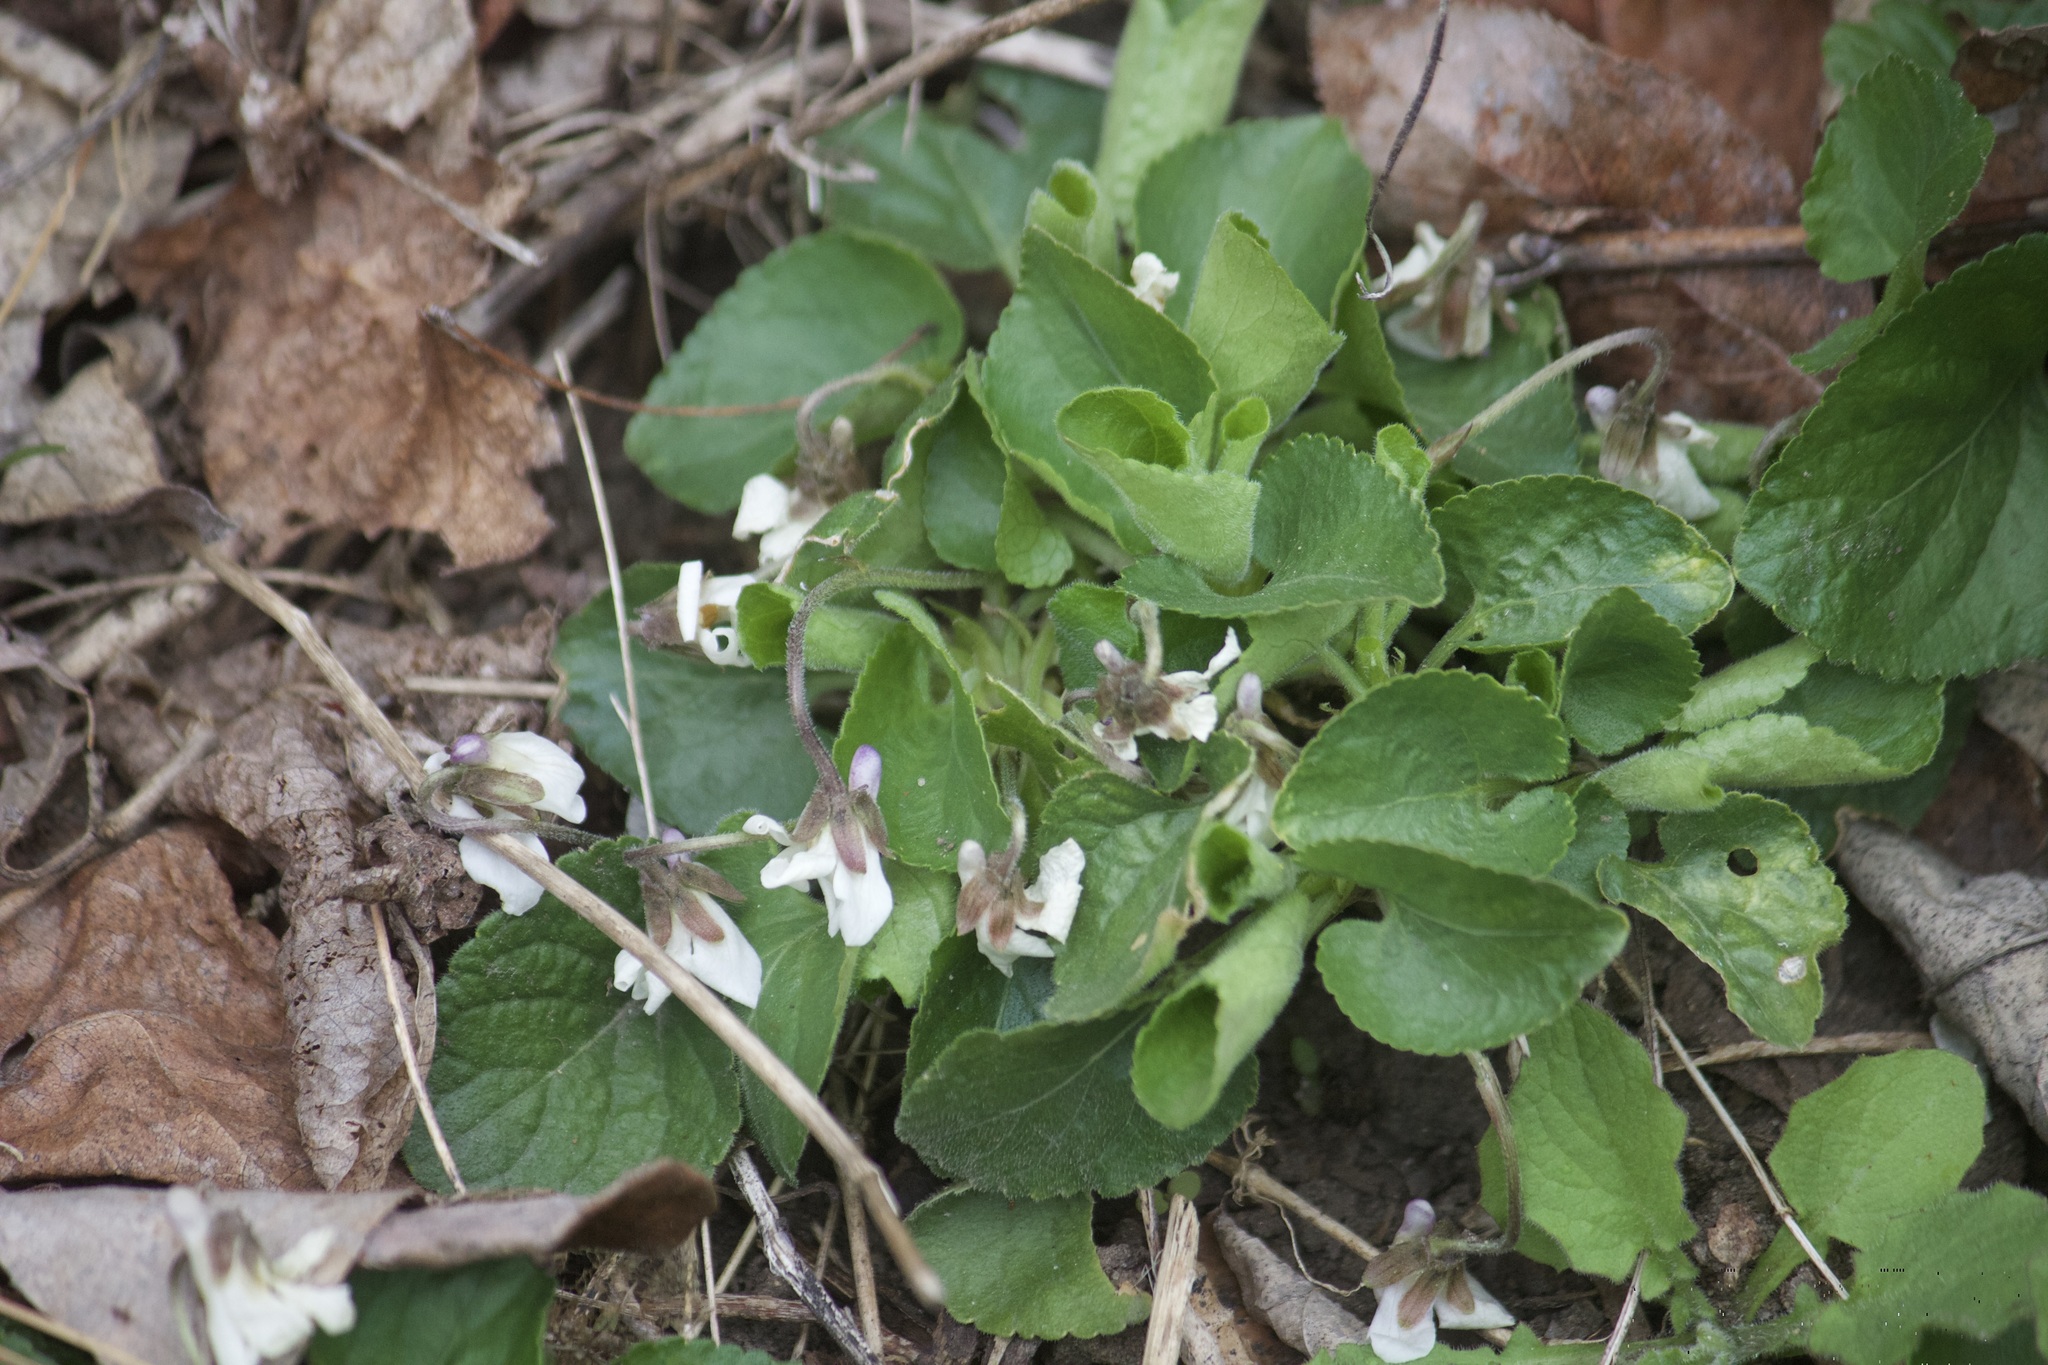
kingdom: Plantae
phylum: Tracheophyta
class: Magnoliopsida
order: Malpighiales
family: Violaceae
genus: Viola
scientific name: Viola odorata
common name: Sweet violet
